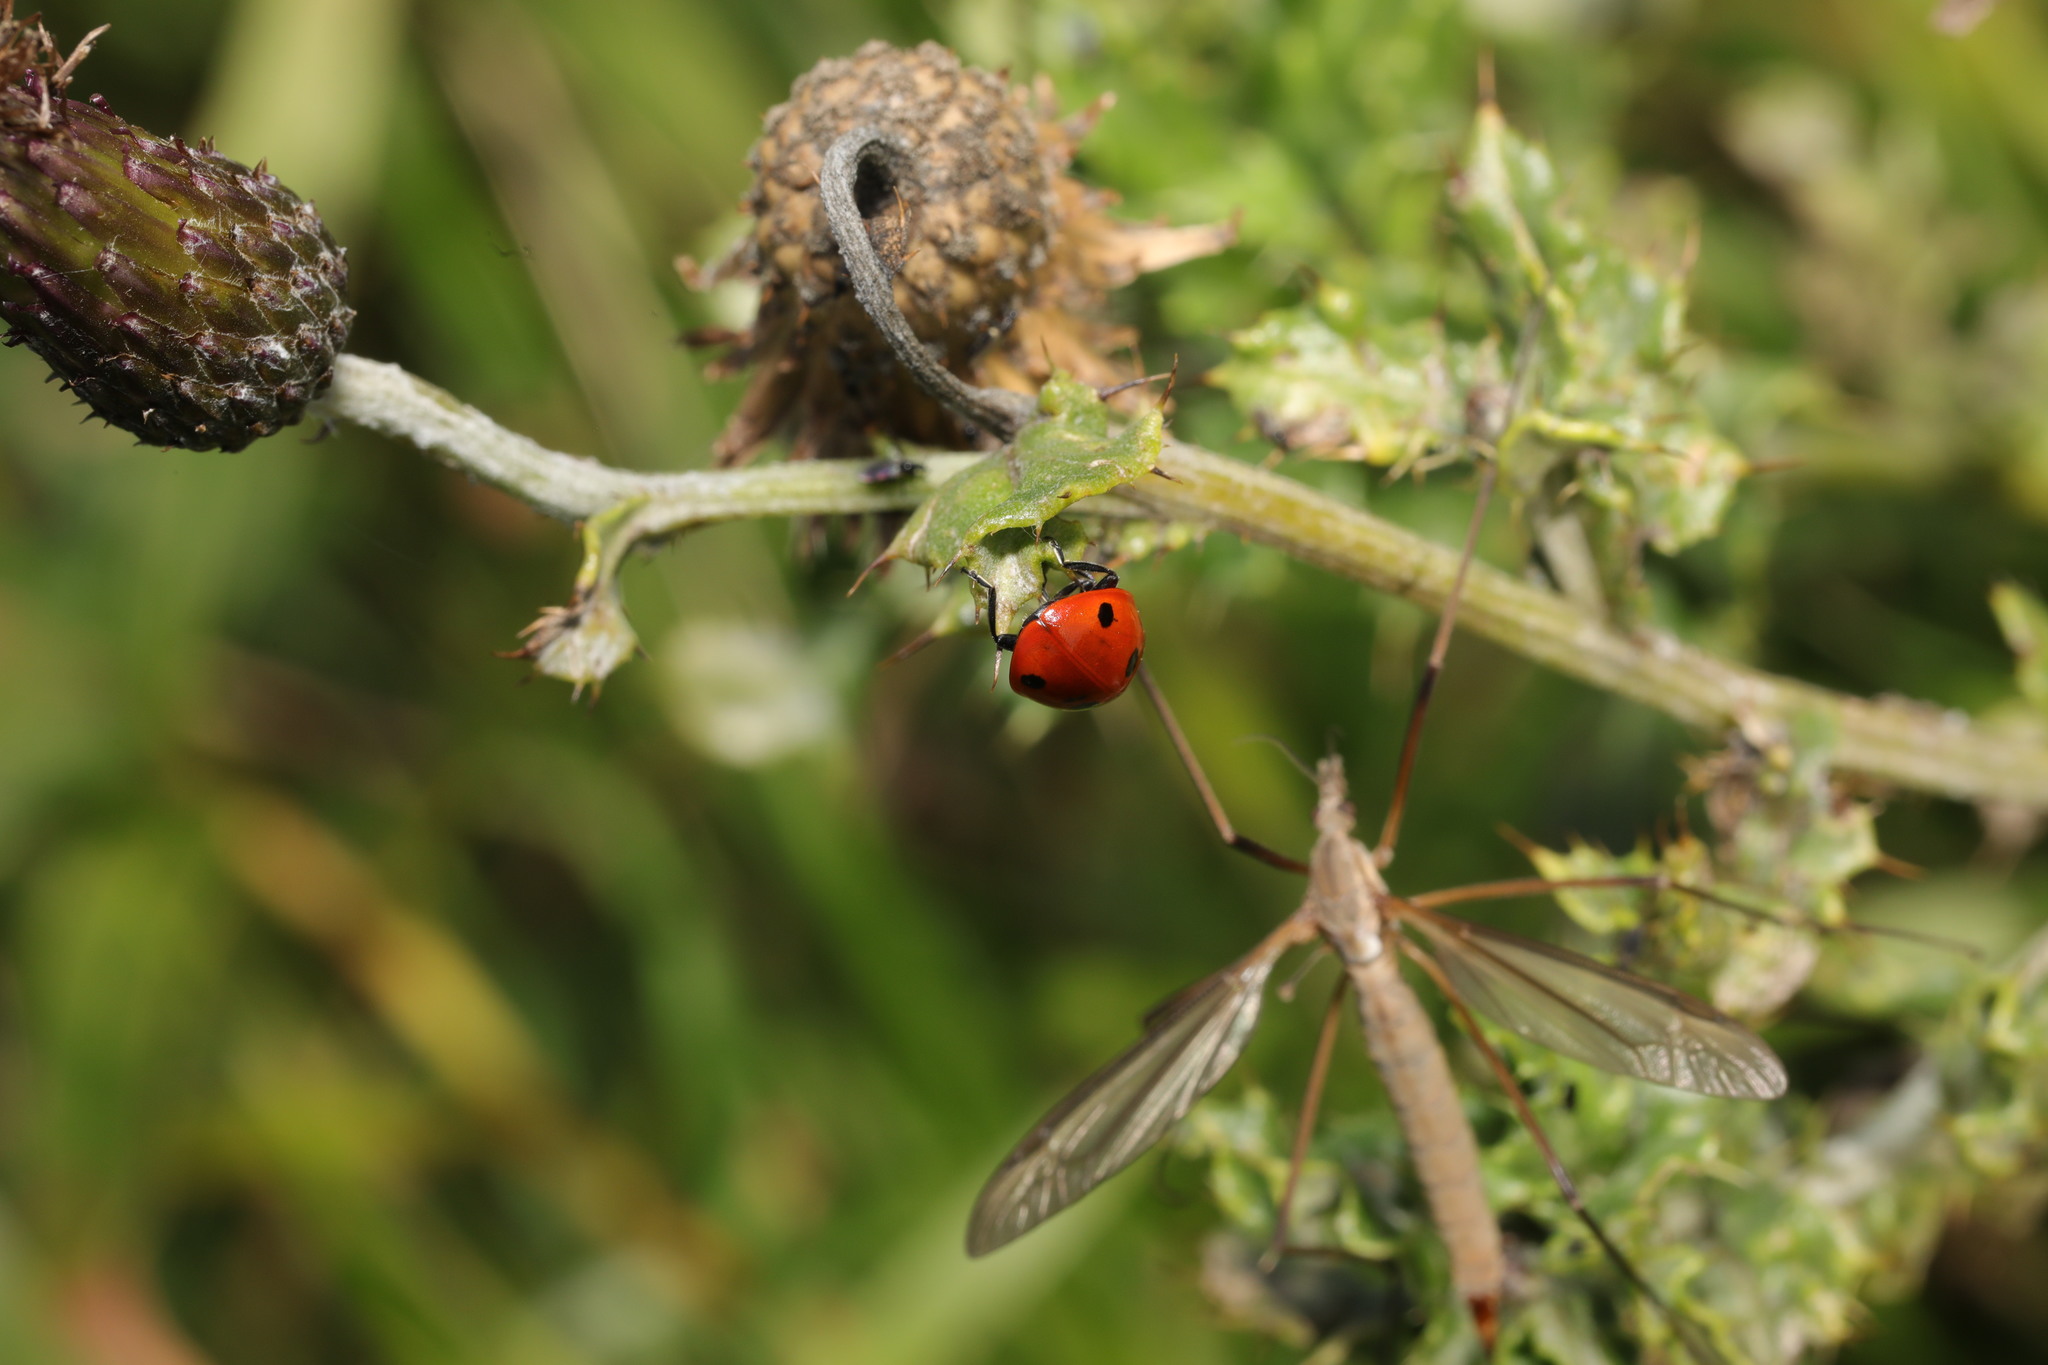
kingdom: Animalia
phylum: Arthropoda
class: Insecta
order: Coleoptera
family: Coccinellidae
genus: Coccinella
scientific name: Coccinella septempunctata
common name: Sevenspotted lady beetle
